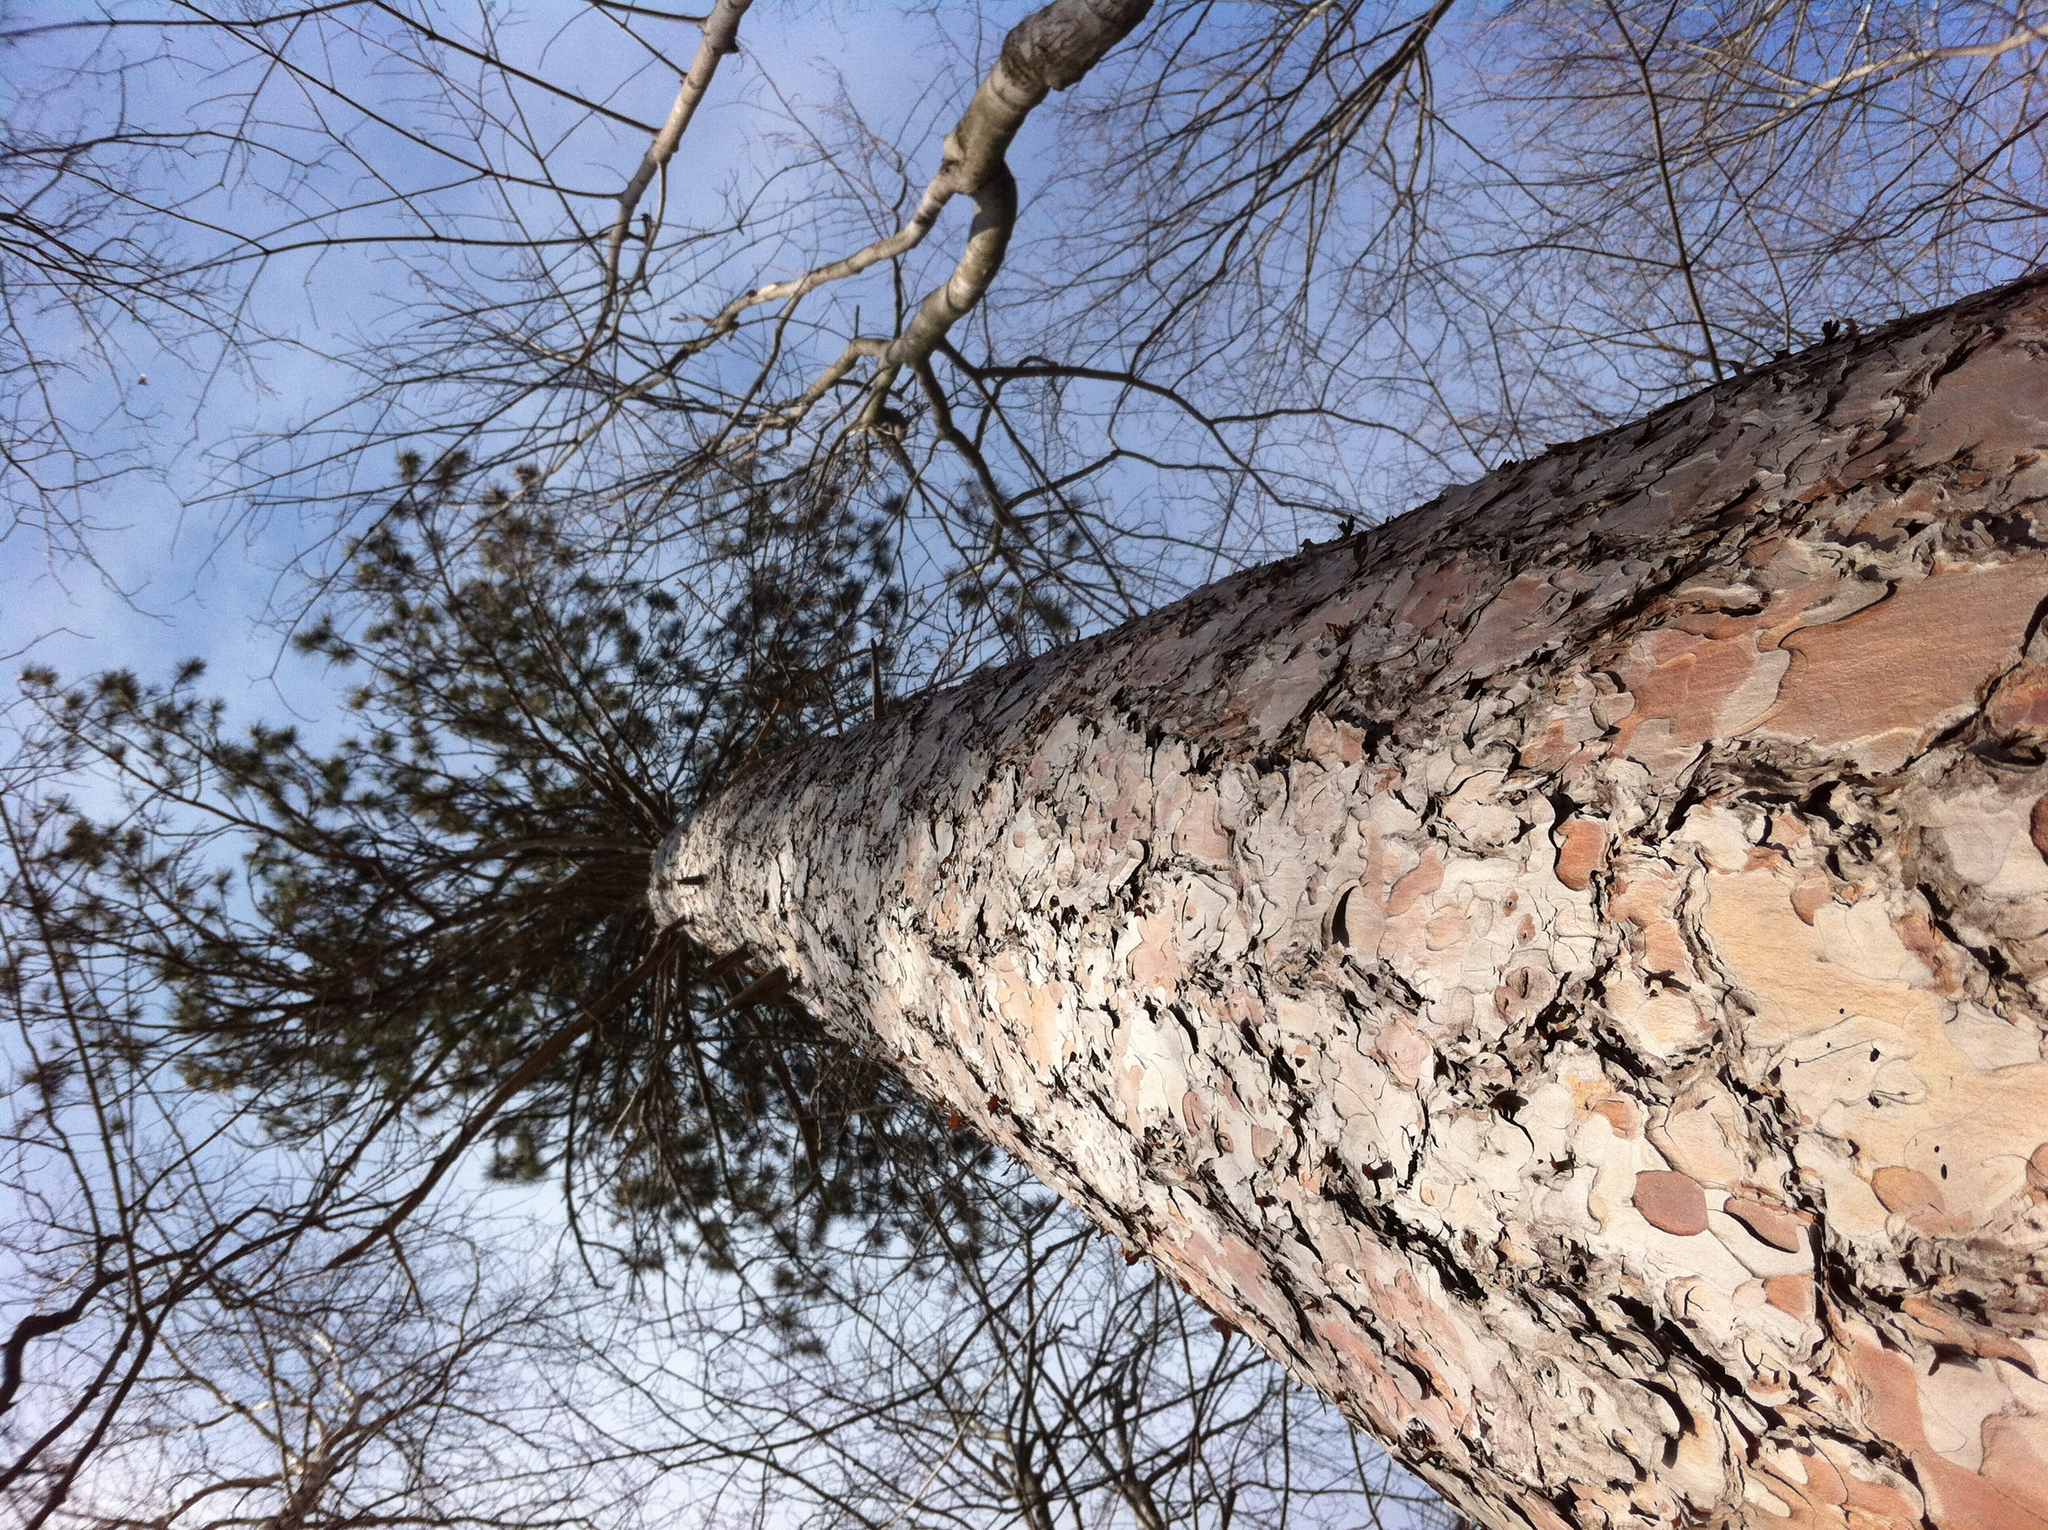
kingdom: Plantae
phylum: Tracheophyta
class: Pinopsida
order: Pinales
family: Pinaceae
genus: Pinus
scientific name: Pinus resinosa
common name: Norway pine
